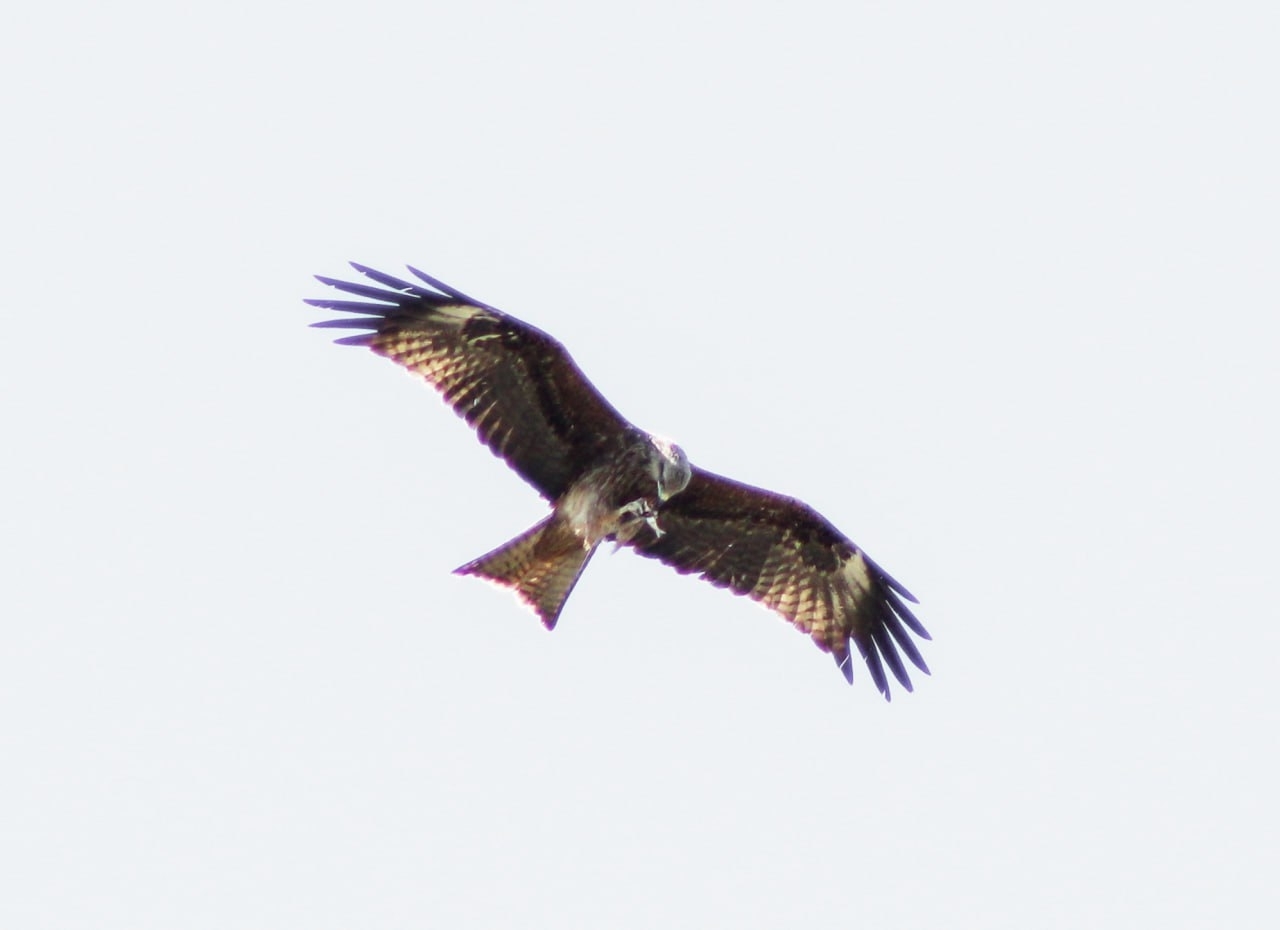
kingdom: Animalia
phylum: Chordata
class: Aves
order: Accipitriformes
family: Accipitridae
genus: Milvus
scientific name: Milvus migrans
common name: Black kite
